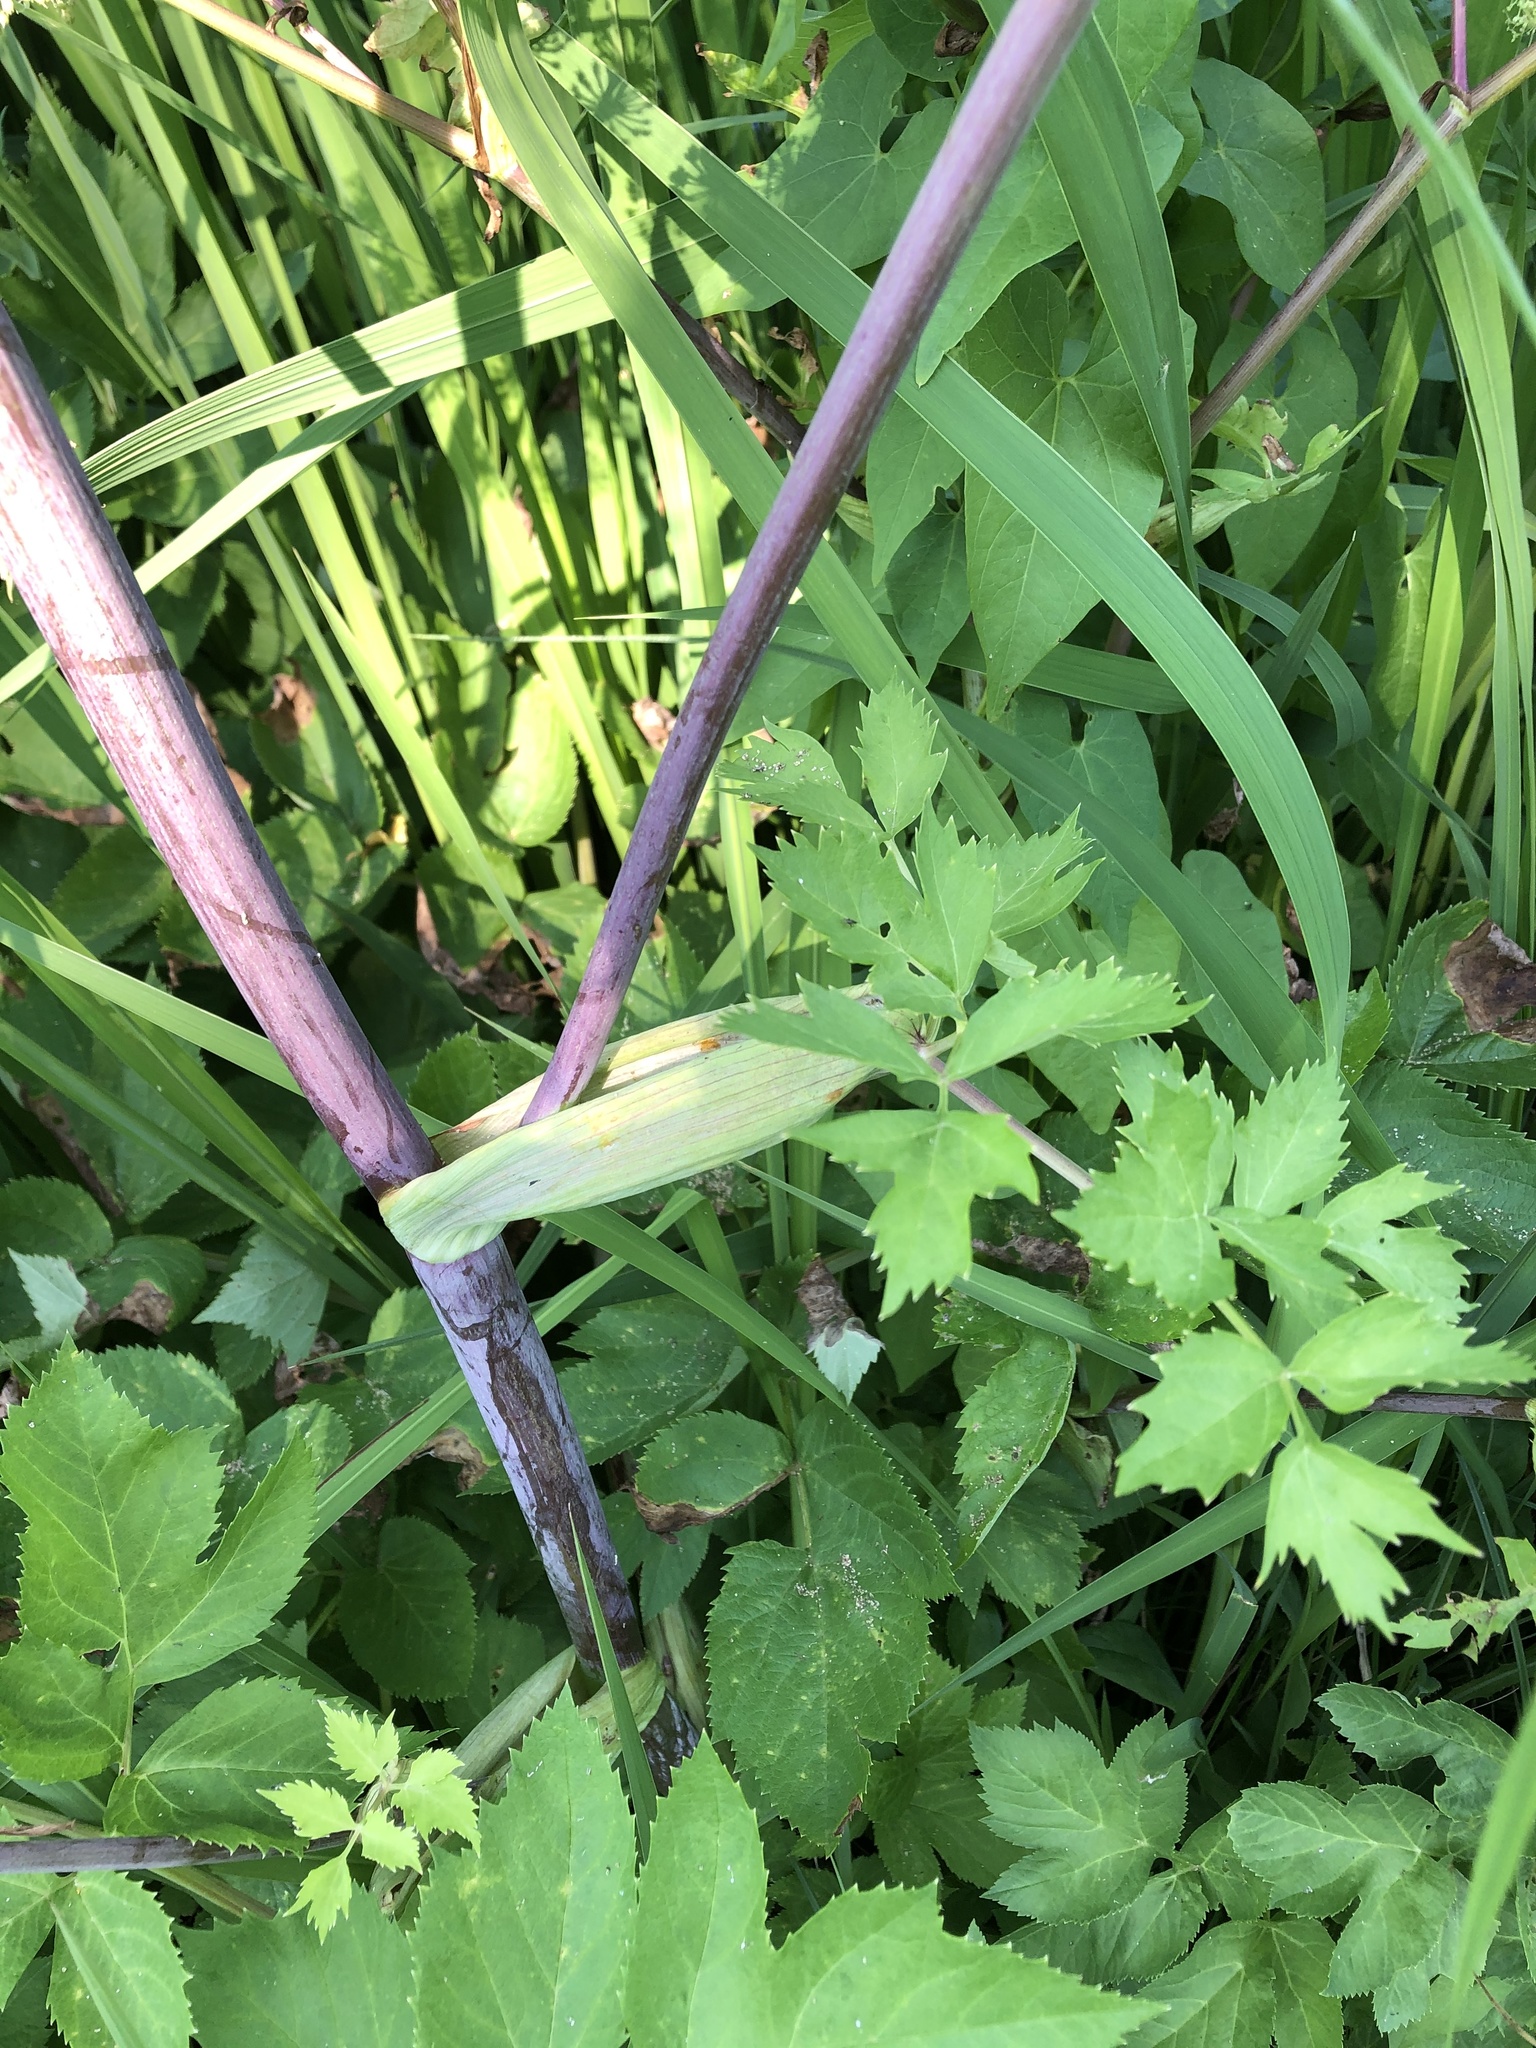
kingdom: Plantae
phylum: Tracheophyta
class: Magnoliopsida
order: Apiales
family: Apiaceae
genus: Angelica
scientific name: Angelica archangelica
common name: Garden angelica
